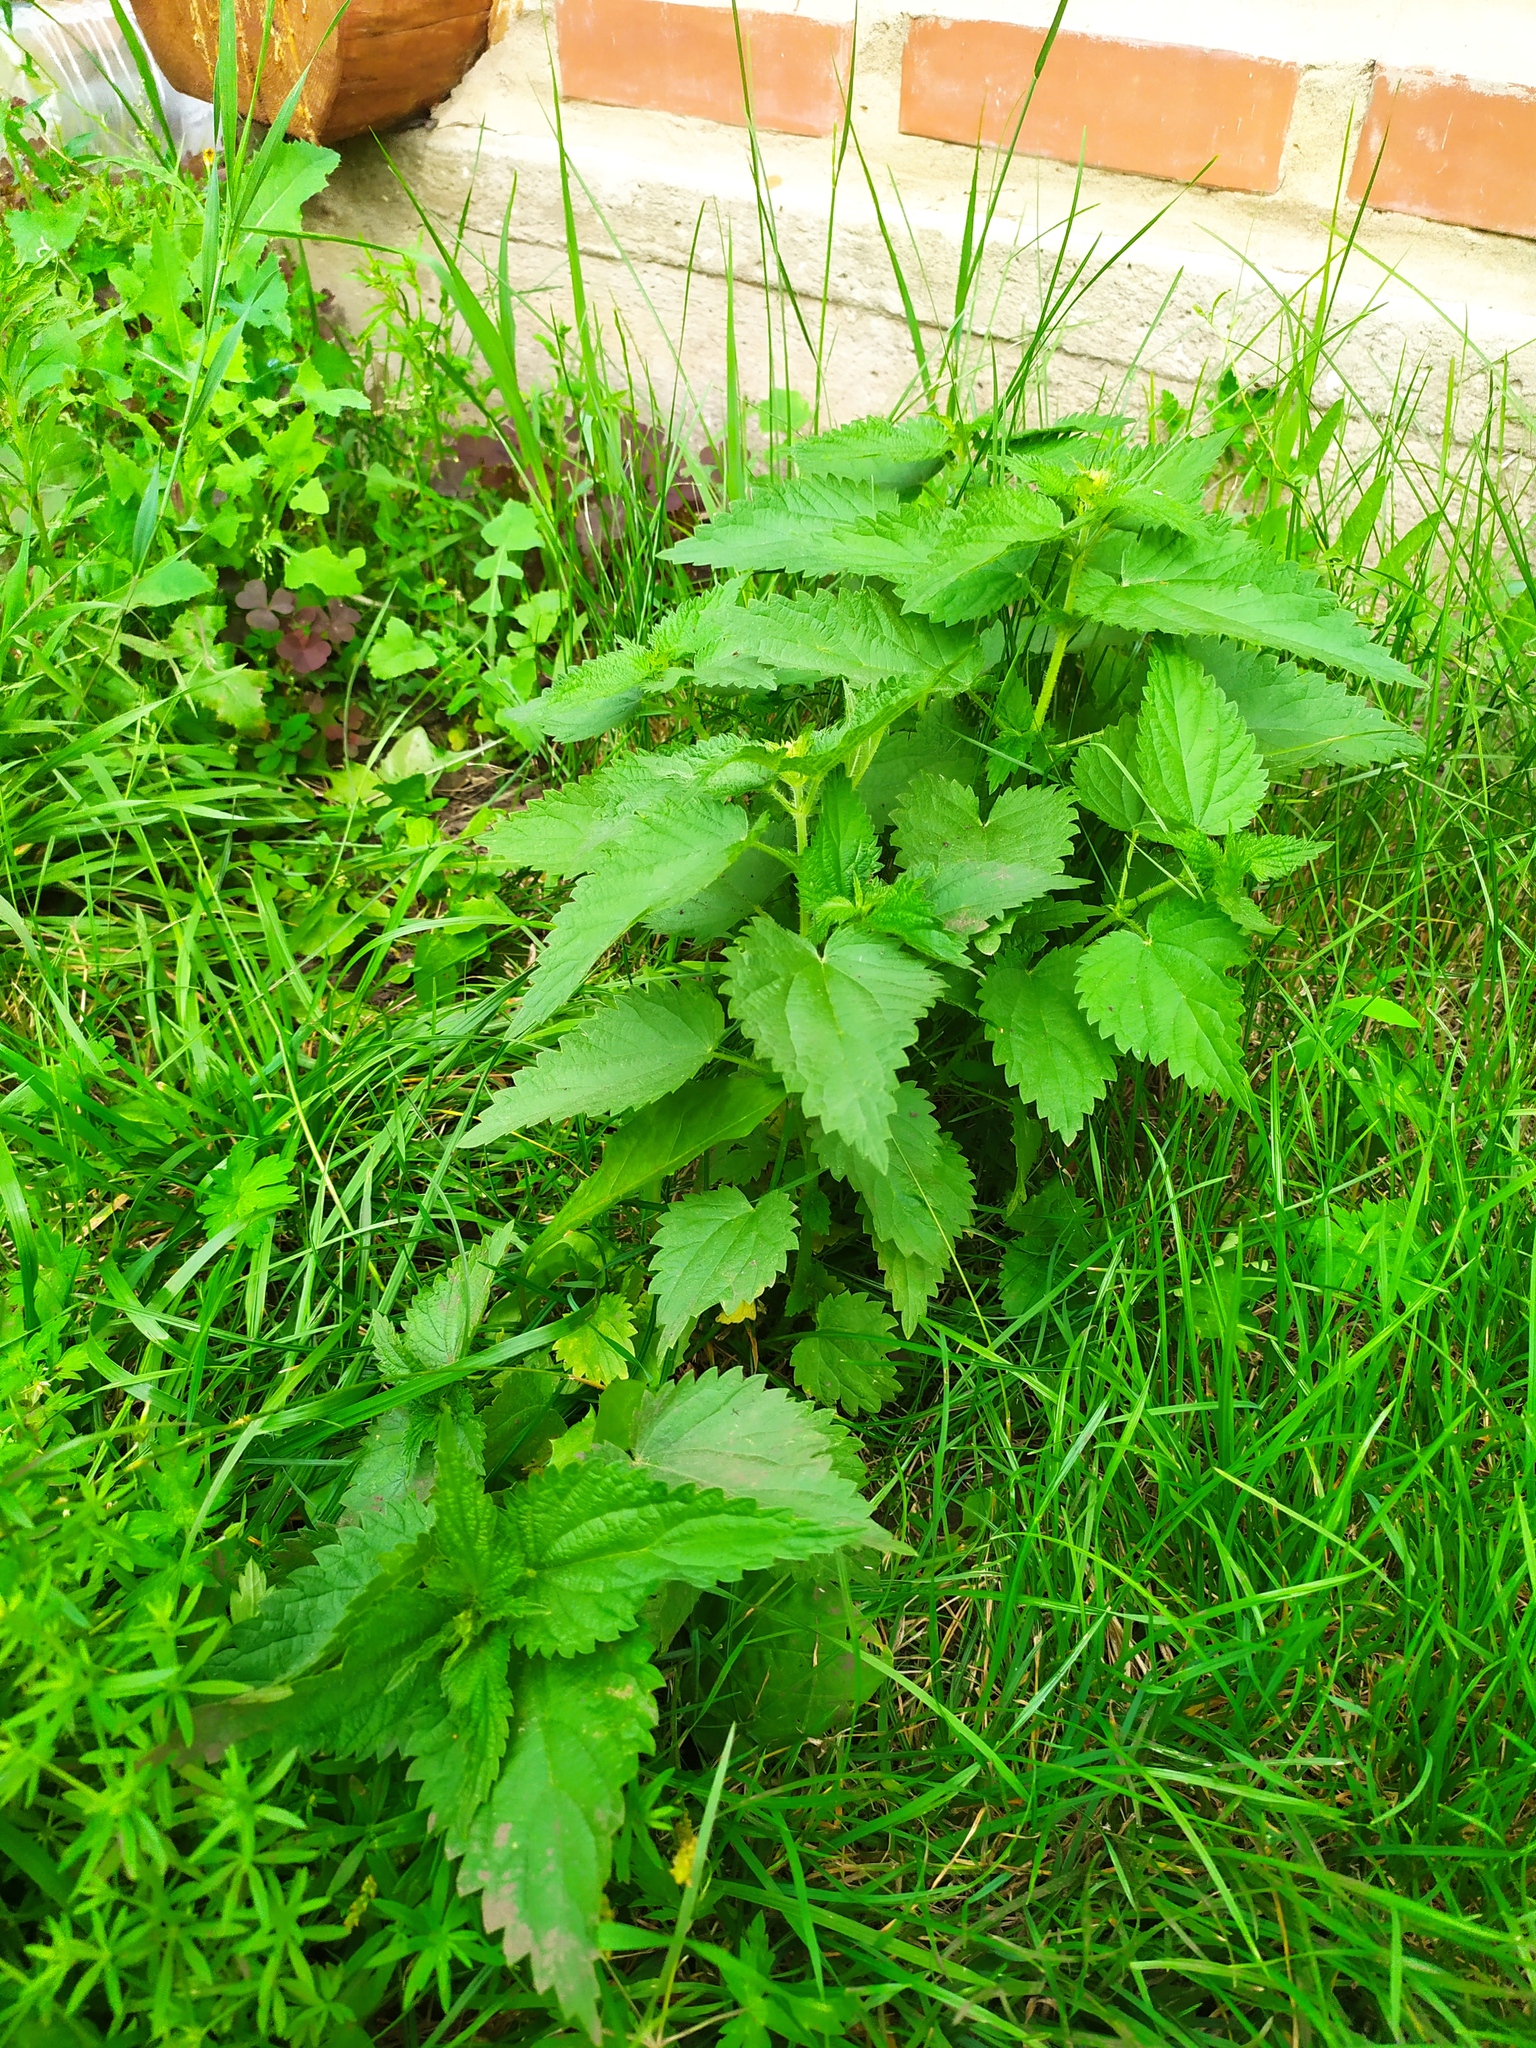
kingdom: Plantae
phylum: Tracheophyta
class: Magnoliopsida
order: Rosales
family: Urticaceae
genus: Urtica
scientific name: Urtica dioica
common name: Common nettle
